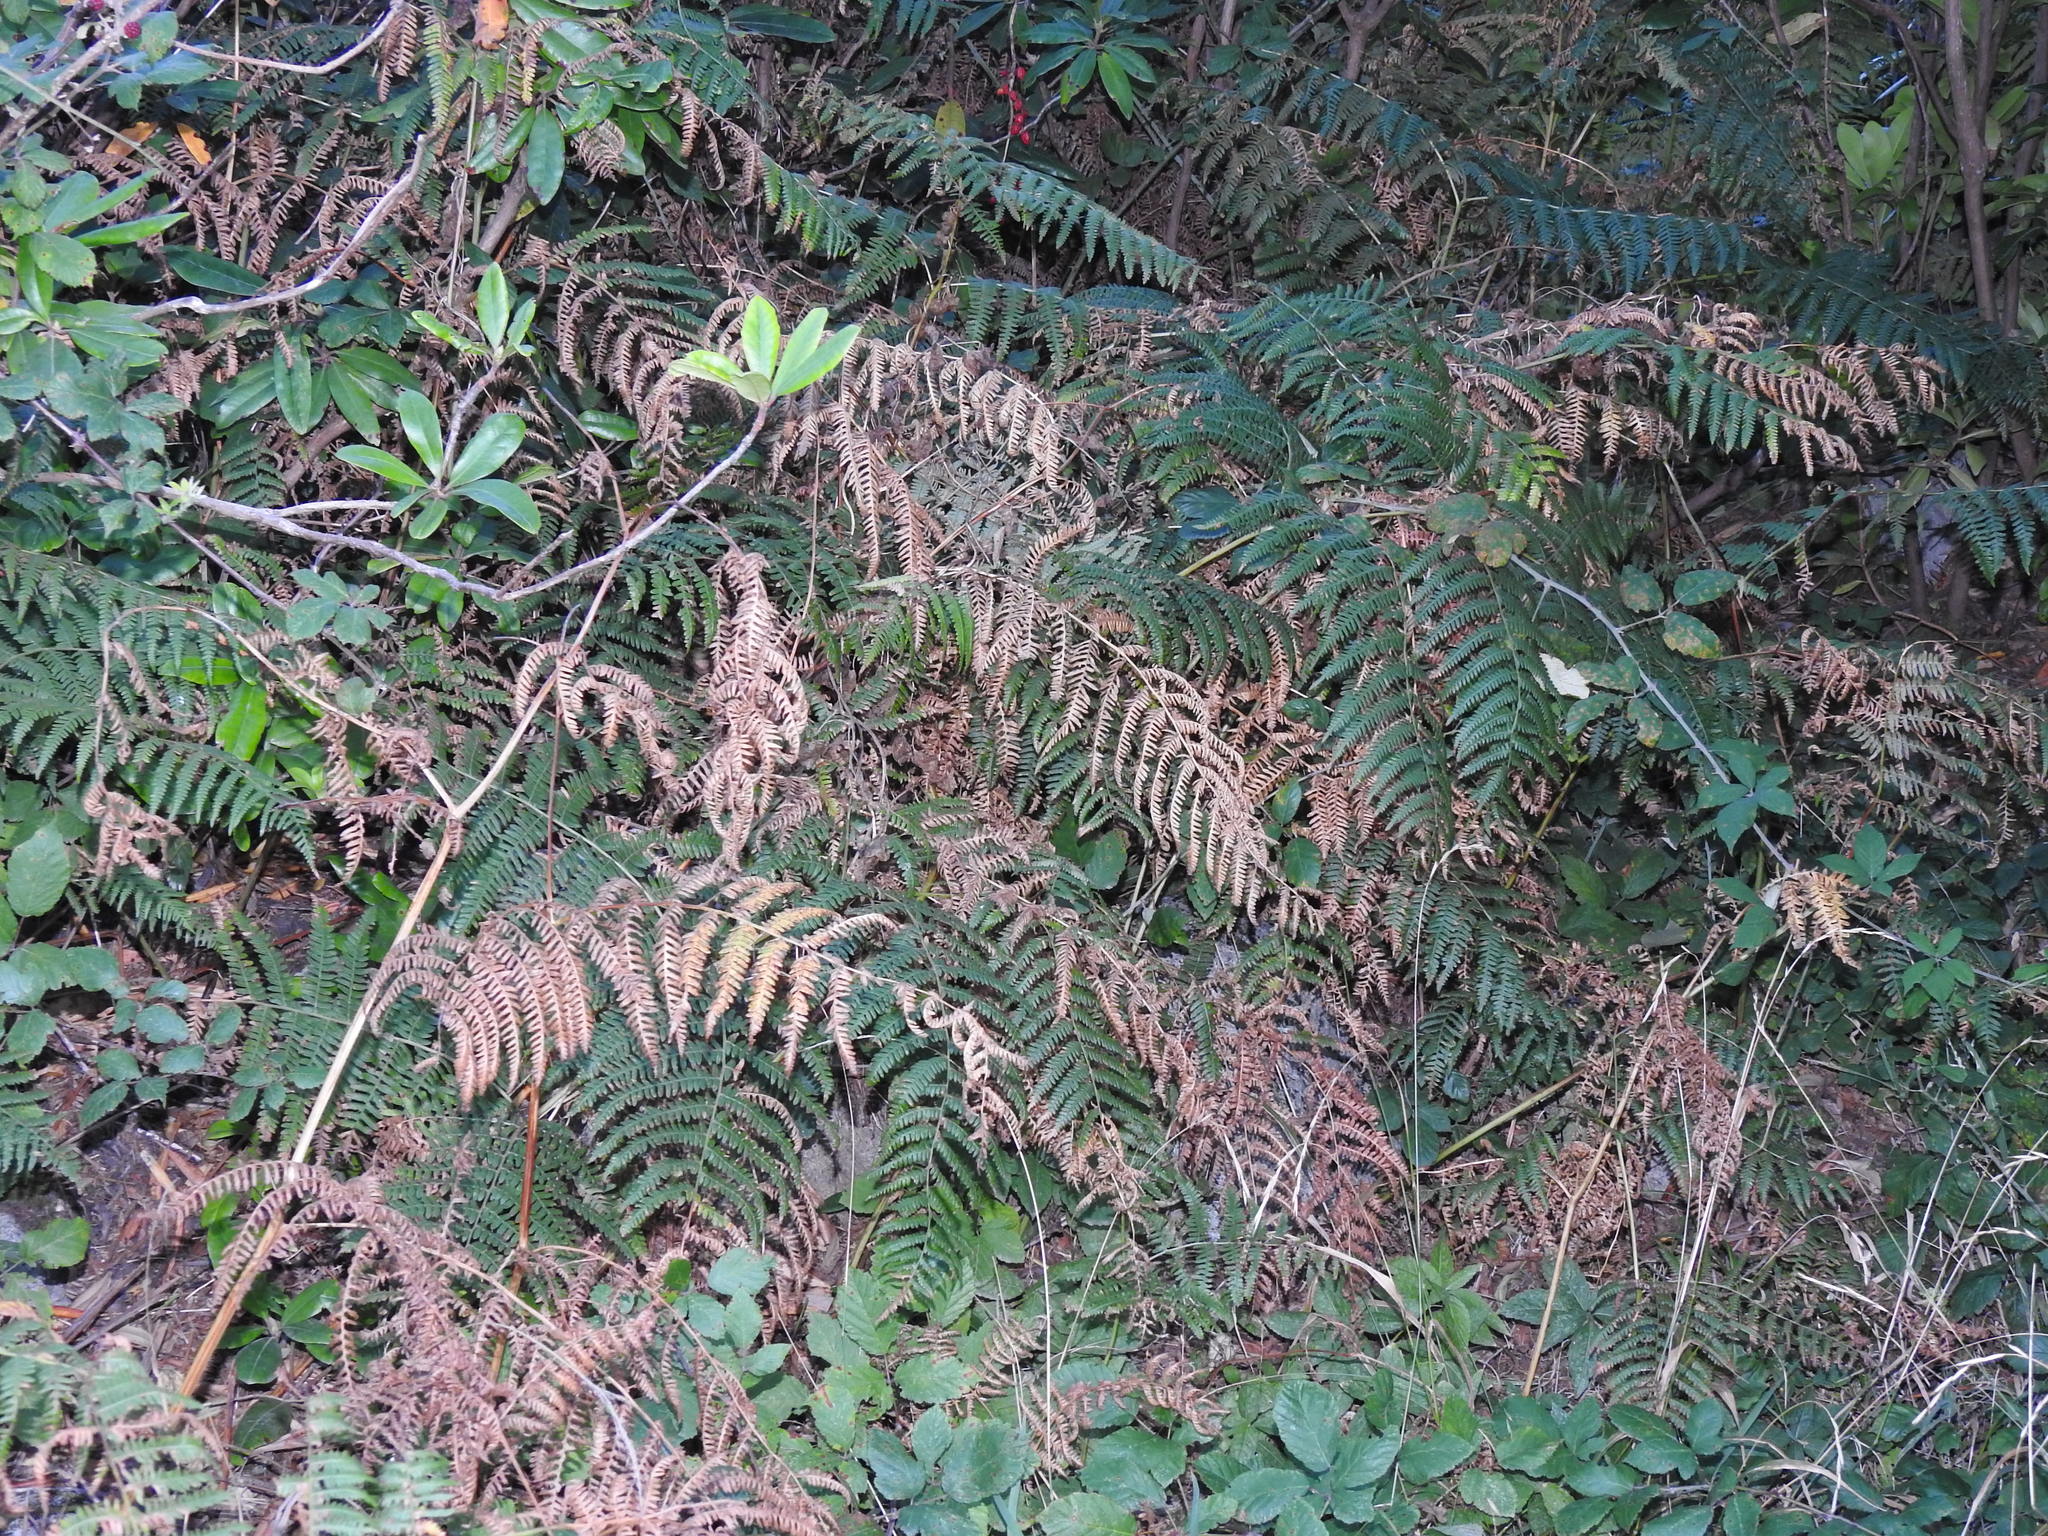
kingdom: Plantae
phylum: Tracheophyta
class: Polypodiopsida
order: Polypodiales
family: Dennstaedtiaceae
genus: Pteridium
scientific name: Pteridium aquilinum
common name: Bracken
